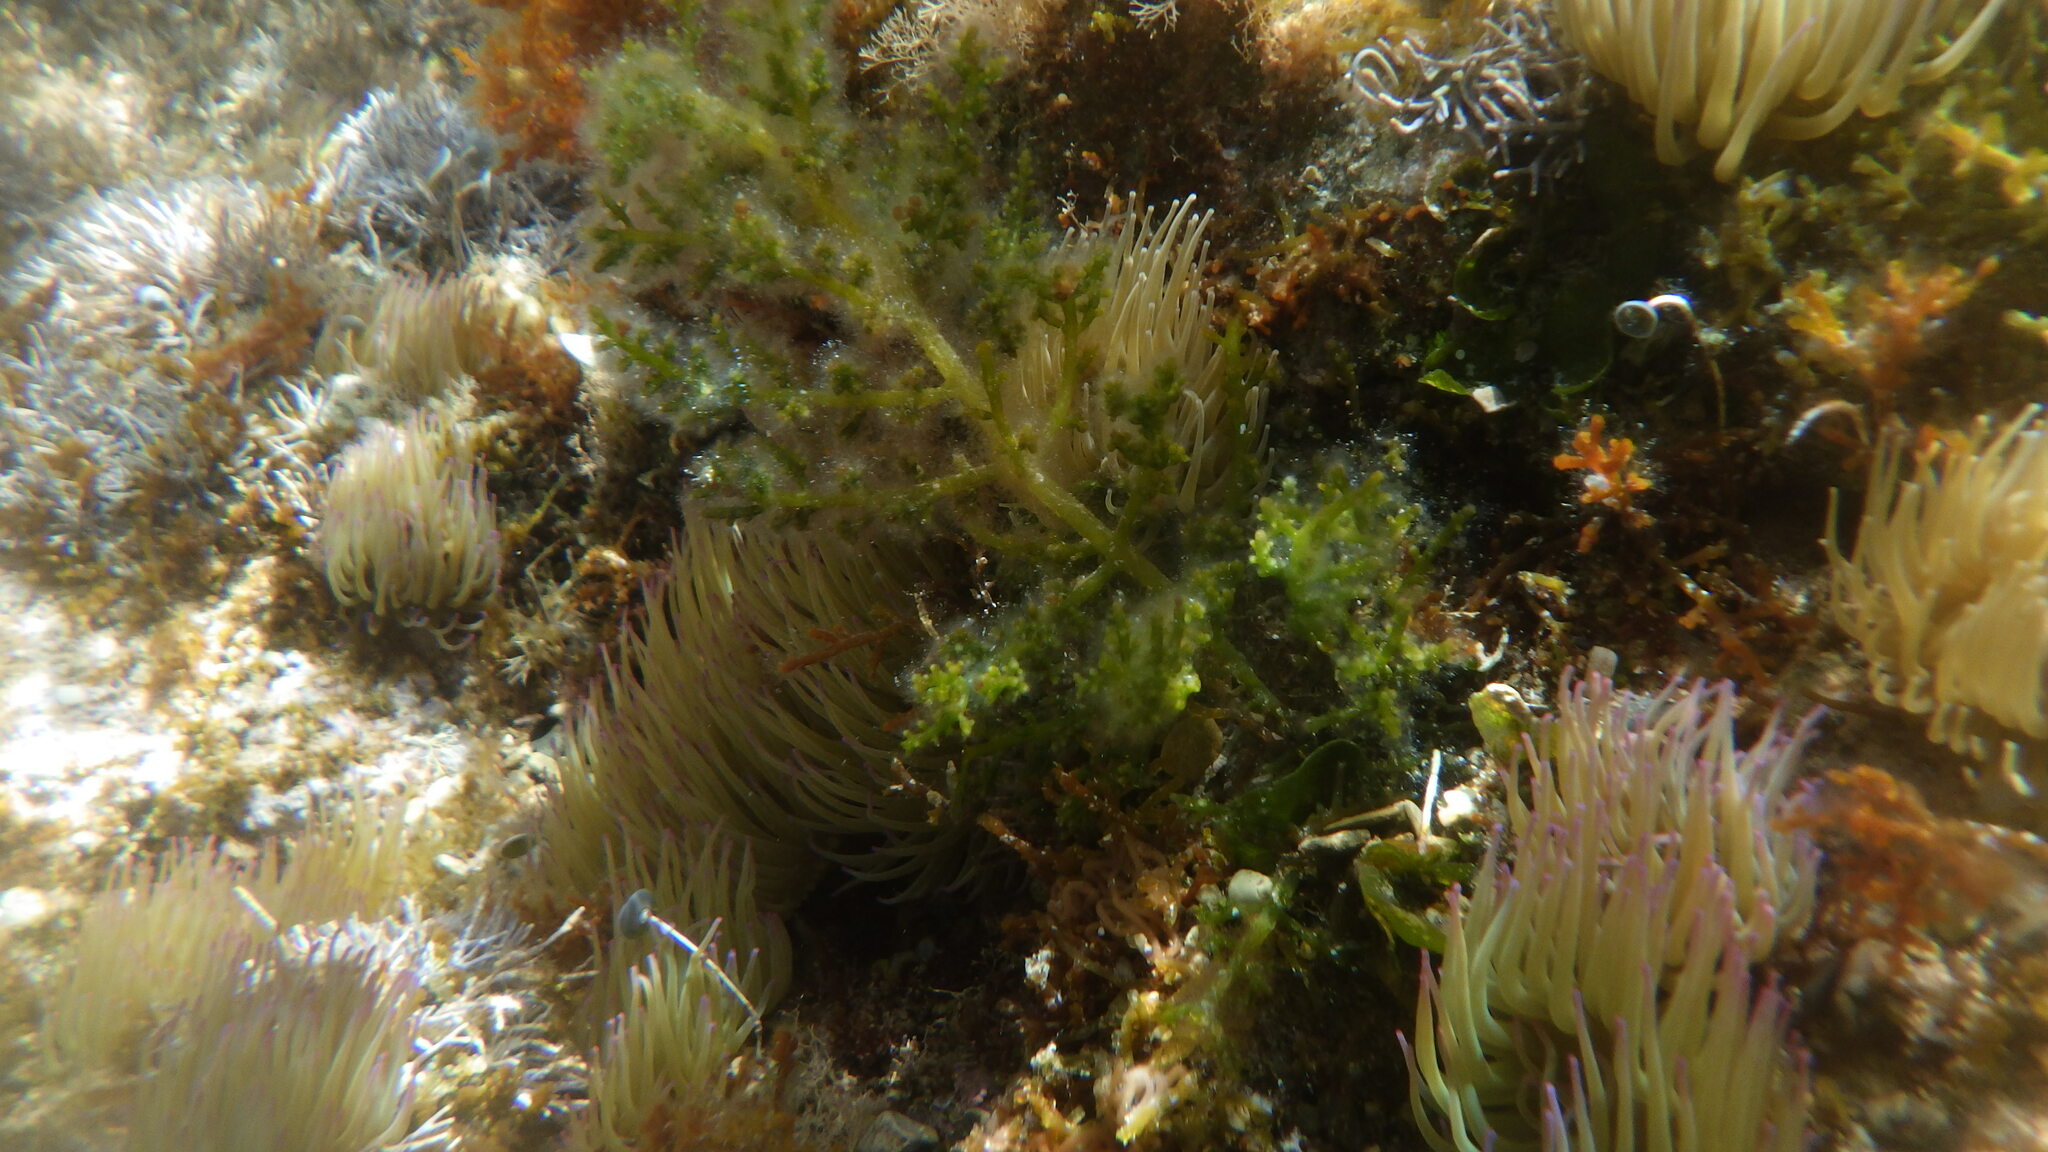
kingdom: Animalia
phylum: Cnidaria
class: Anthozoa
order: Actiniaria
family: Actiniidae
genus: Anemonia
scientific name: Anemonia viridis
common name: Snakelocks anemone
